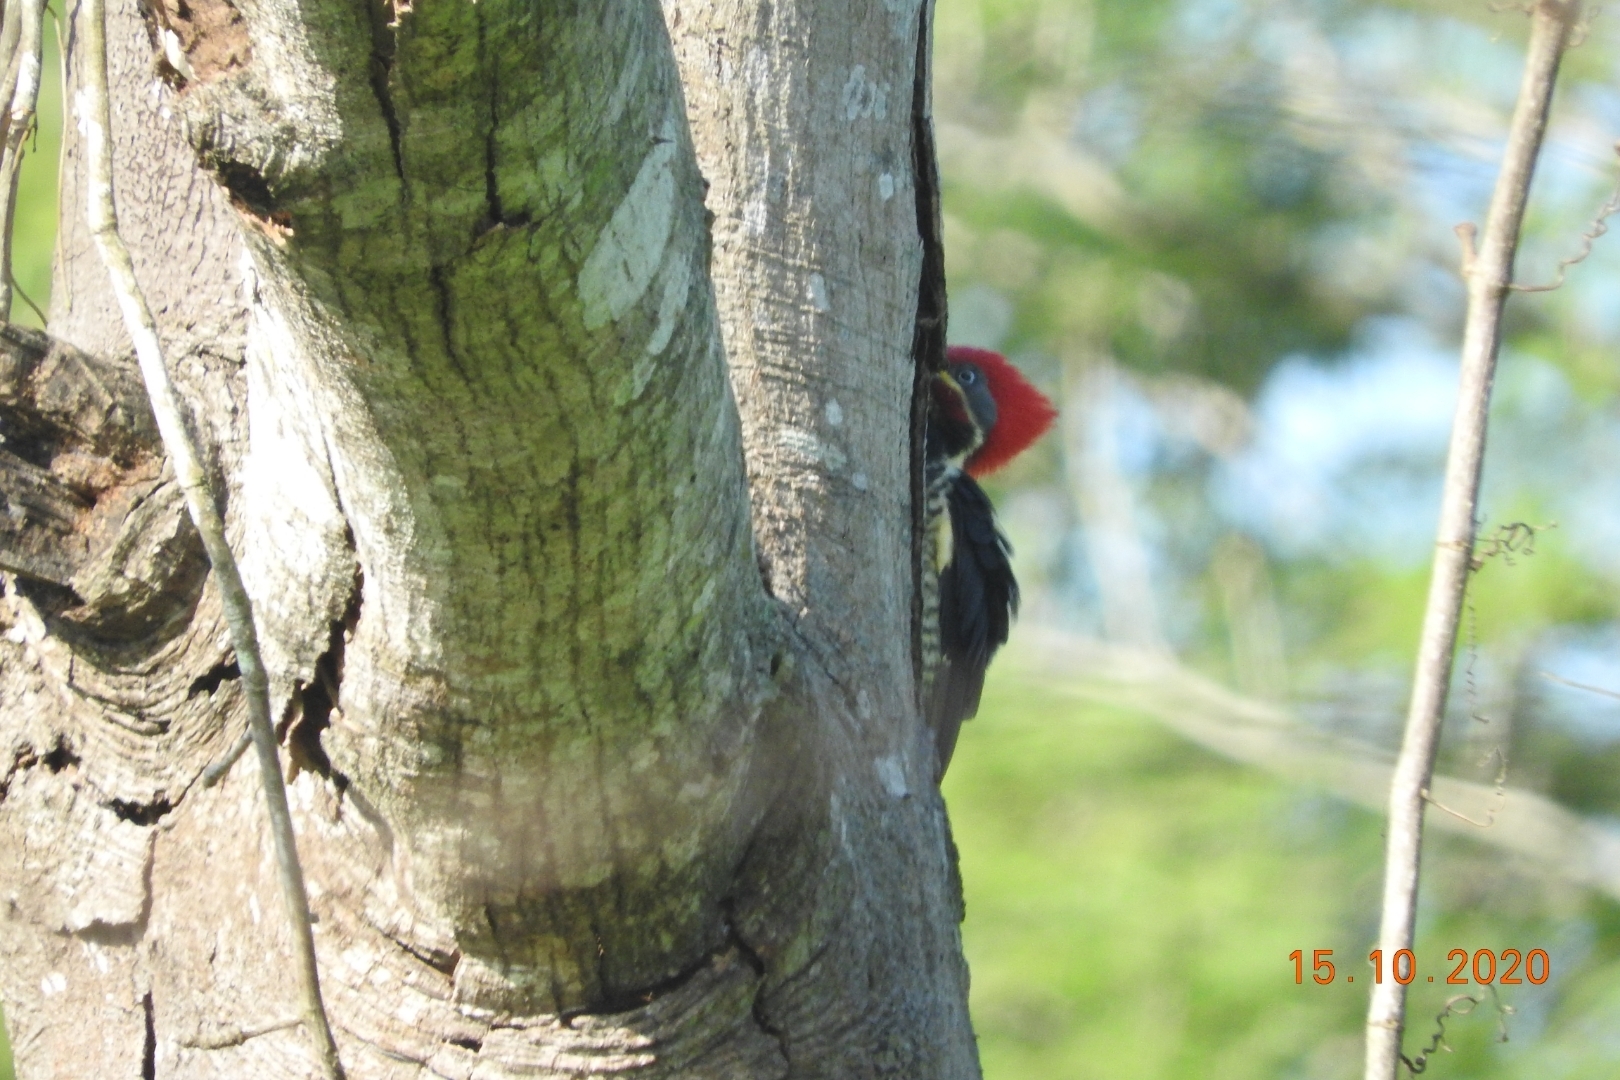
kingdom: Animalia
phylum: Chordata
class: Aves
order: Piciformes
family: Picidae
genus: Dryocopus
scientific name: Dryocopus lineatus
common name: Lineated woodpecker
